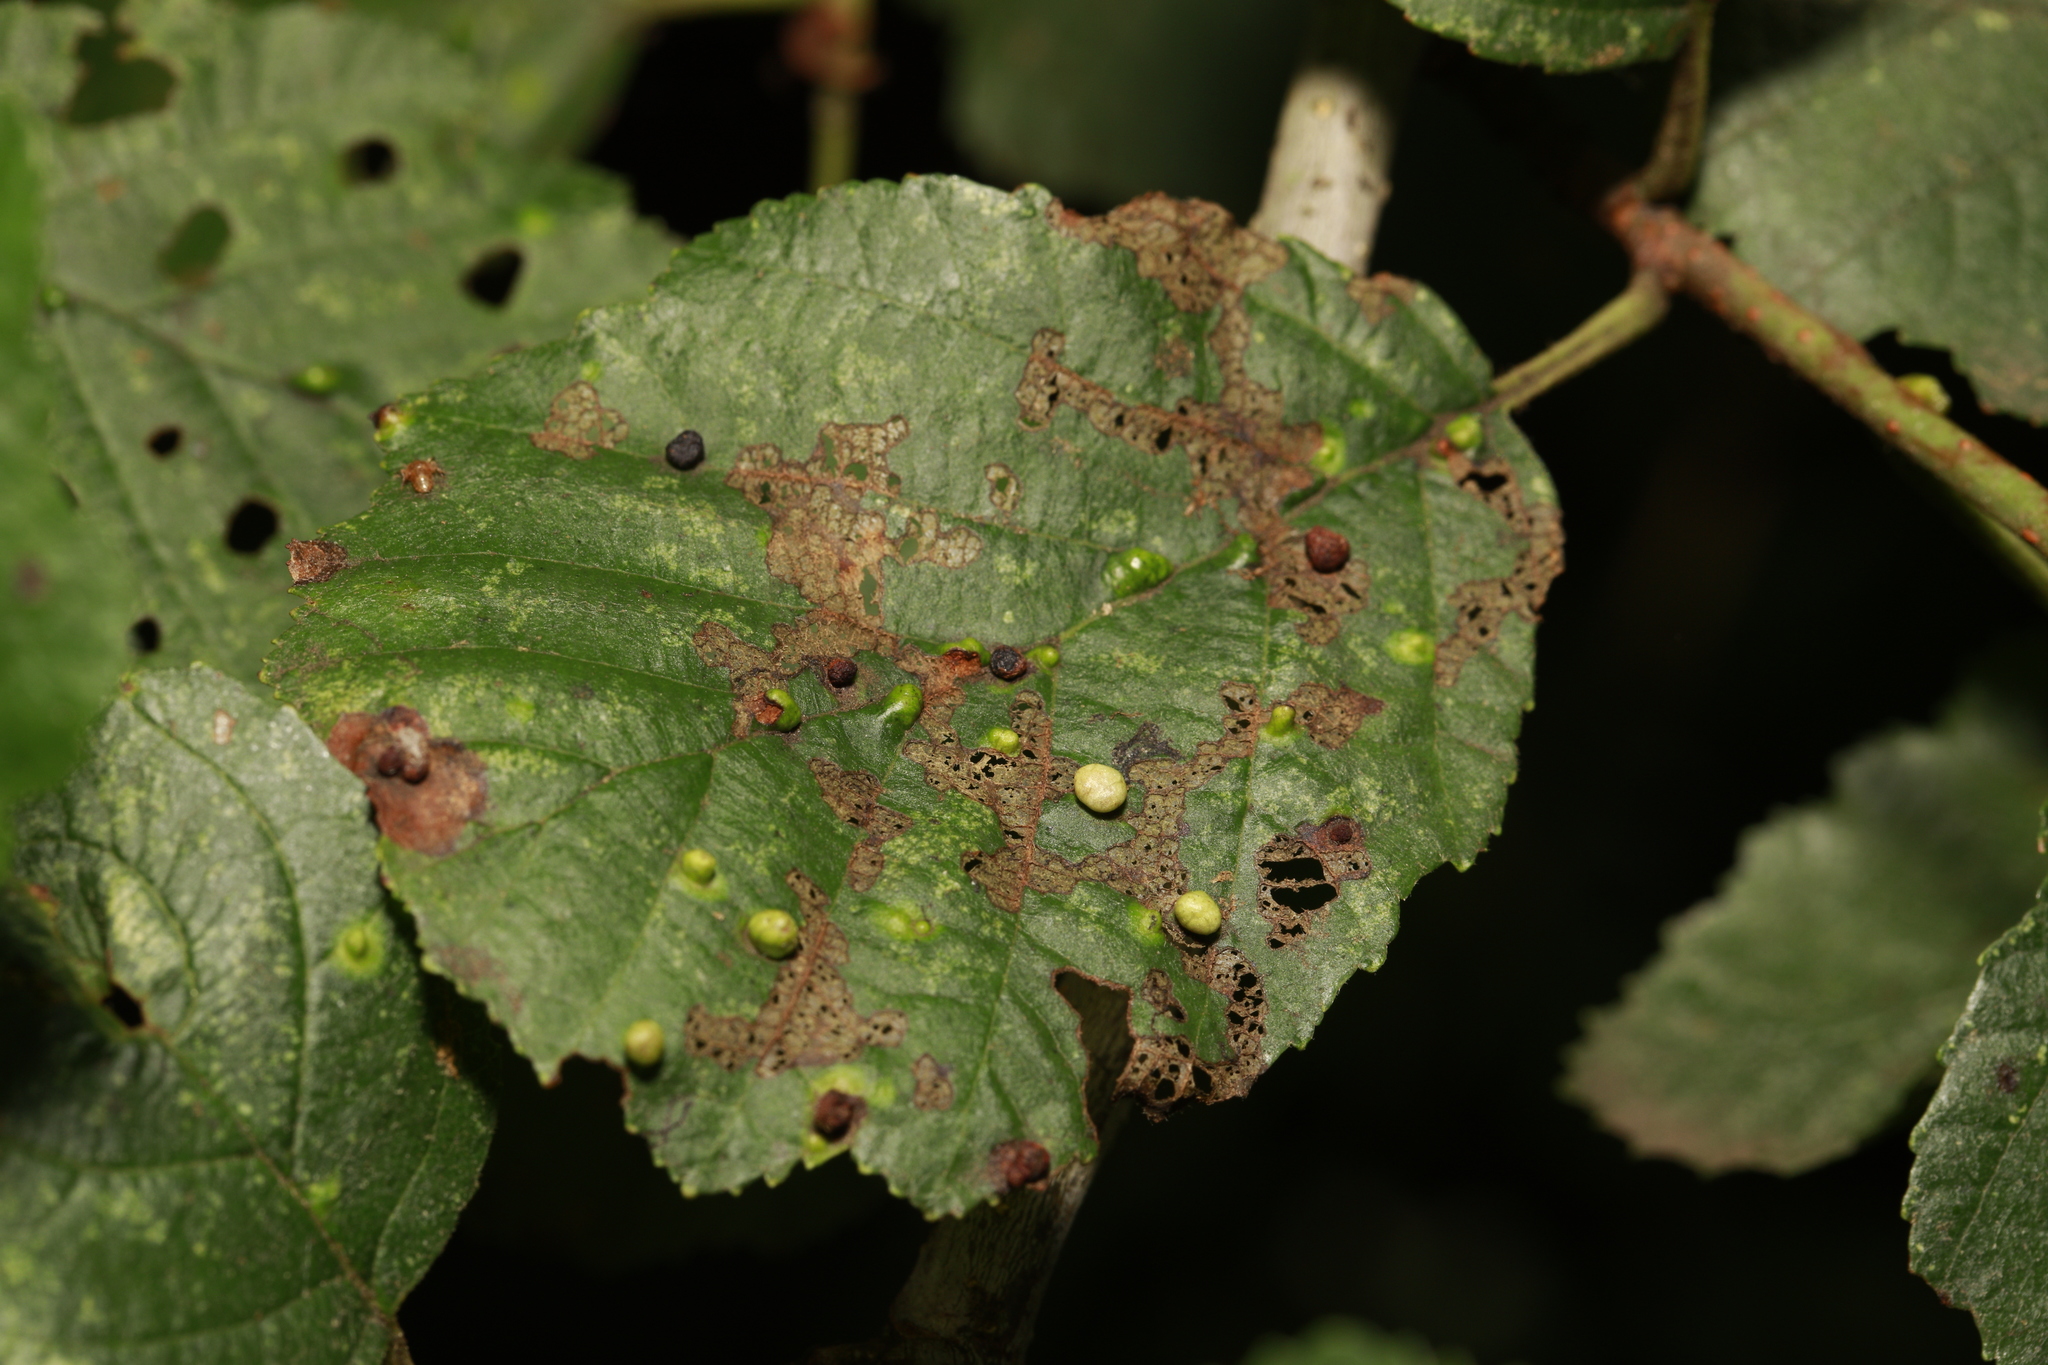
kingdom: Animalia
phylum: Arthropoda
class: Arachnida
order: Trombidiformes
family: Eriophyidae
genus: Eriophyes
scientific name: Eriophyes laevis
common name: Alder leaf gall mite
